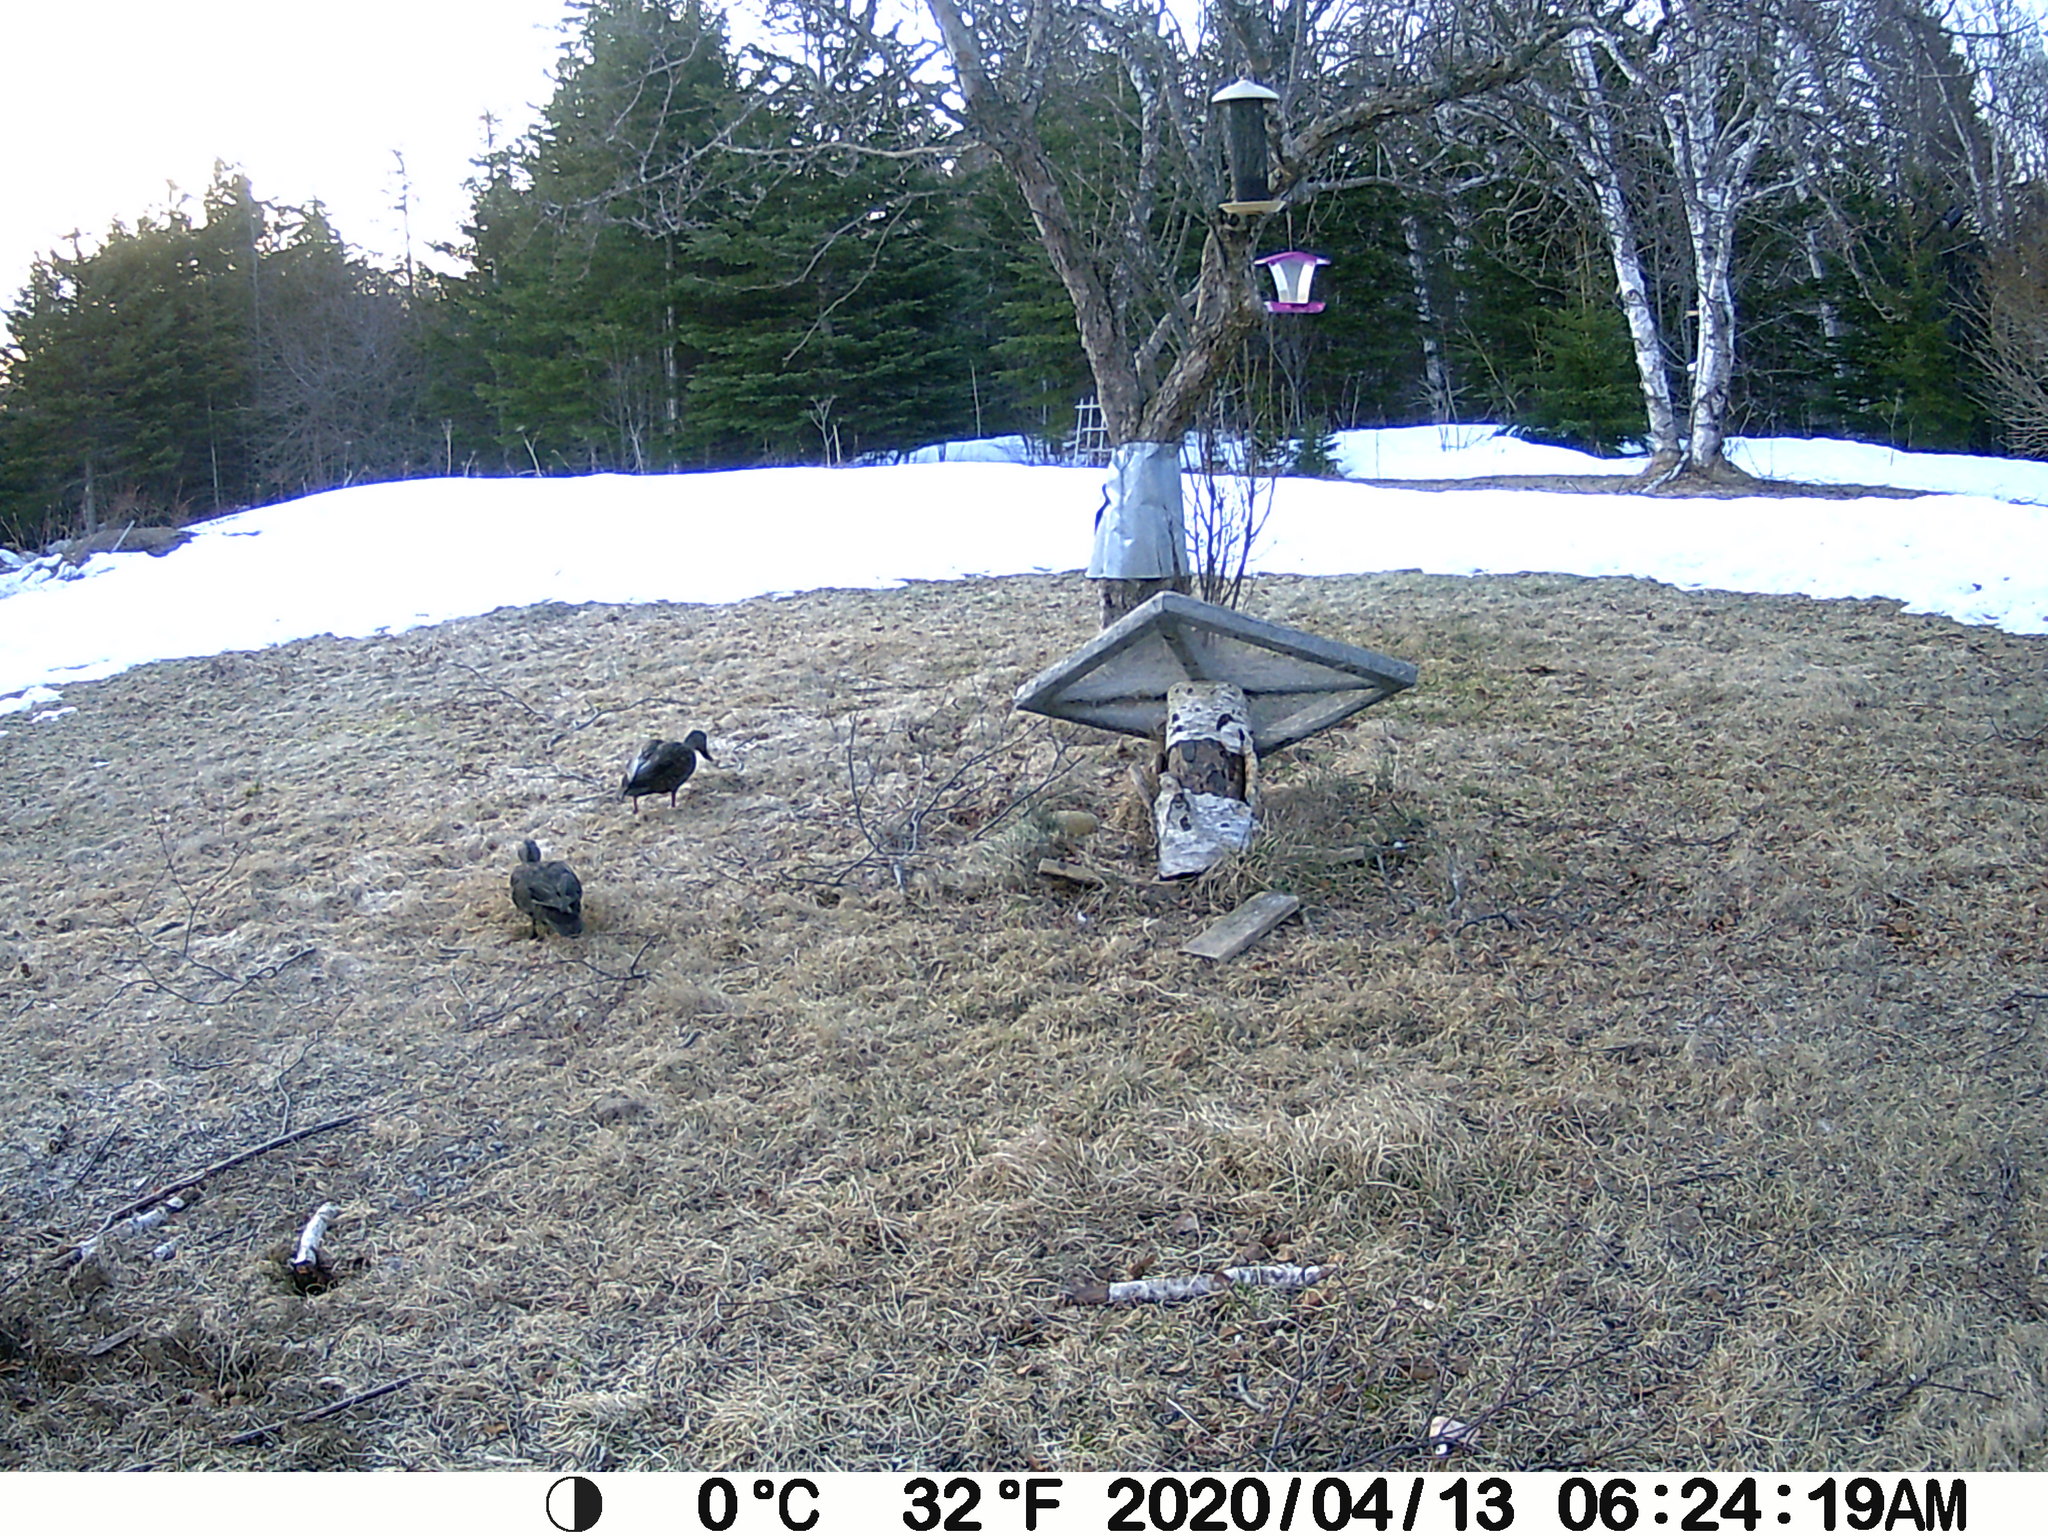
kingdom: Animalia
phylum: Chordata
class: Aves
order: Anseriformes
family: Anatidae
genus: Anas
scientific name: Anas rubripes
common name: American black duck
